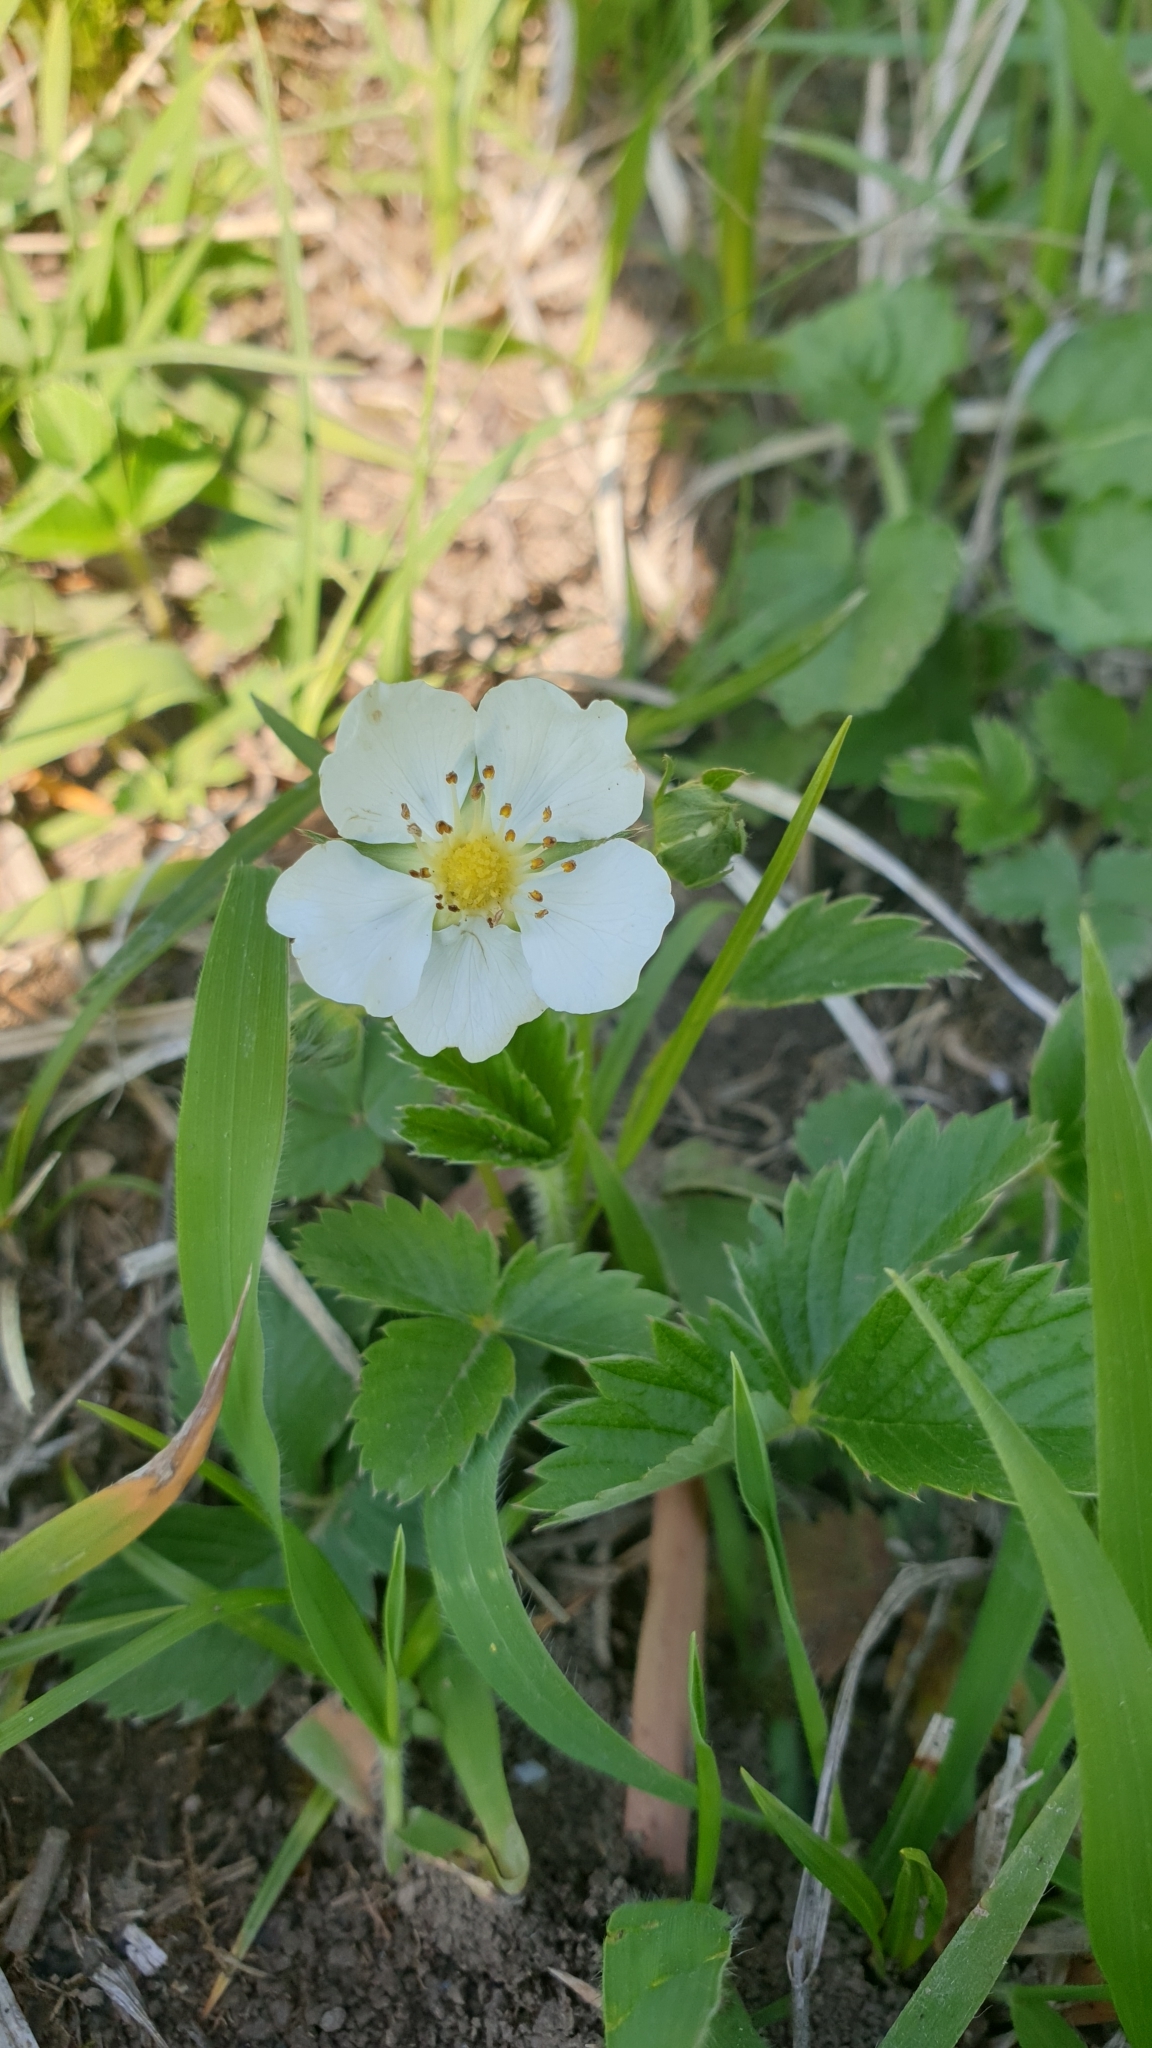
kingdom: Plantae
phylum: Tracheophyta
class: Magnoliopsida
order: Rosales
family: Rosaceae
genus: Fragaria
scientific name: Fragaria viridis
